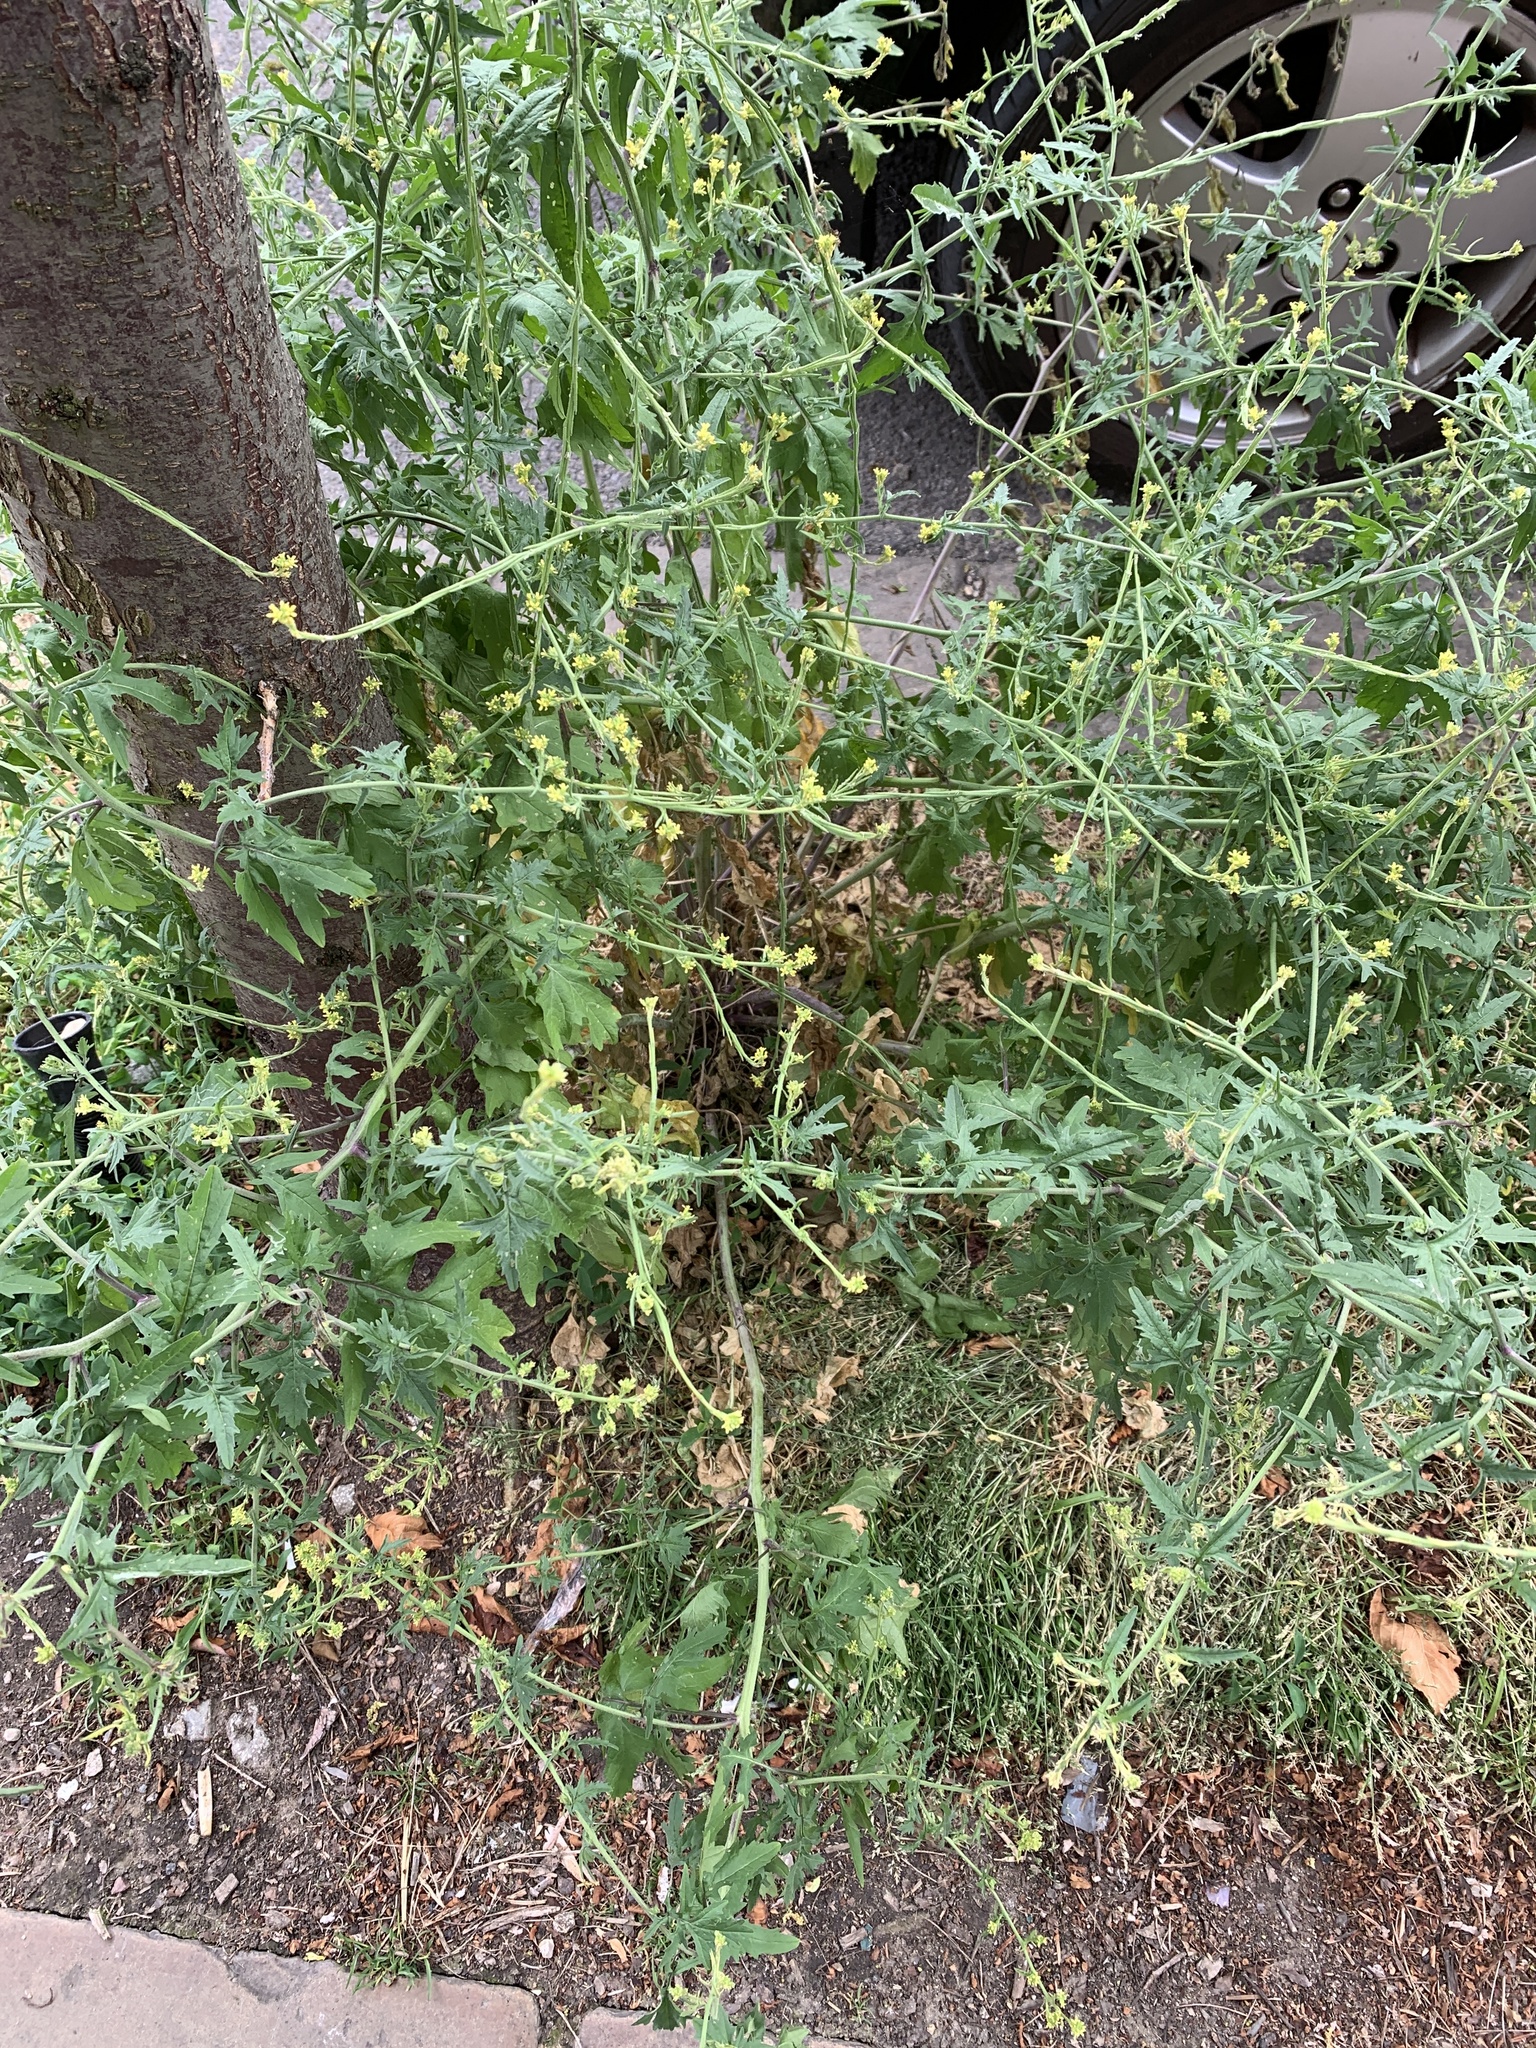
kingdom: Plantae
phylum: Tracheophyta
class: Magnoliopsida
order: Brassicales
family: Brassicaceae
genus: Sisymbrium
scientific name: Sisymbrium officinale
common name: Hedge mustard
